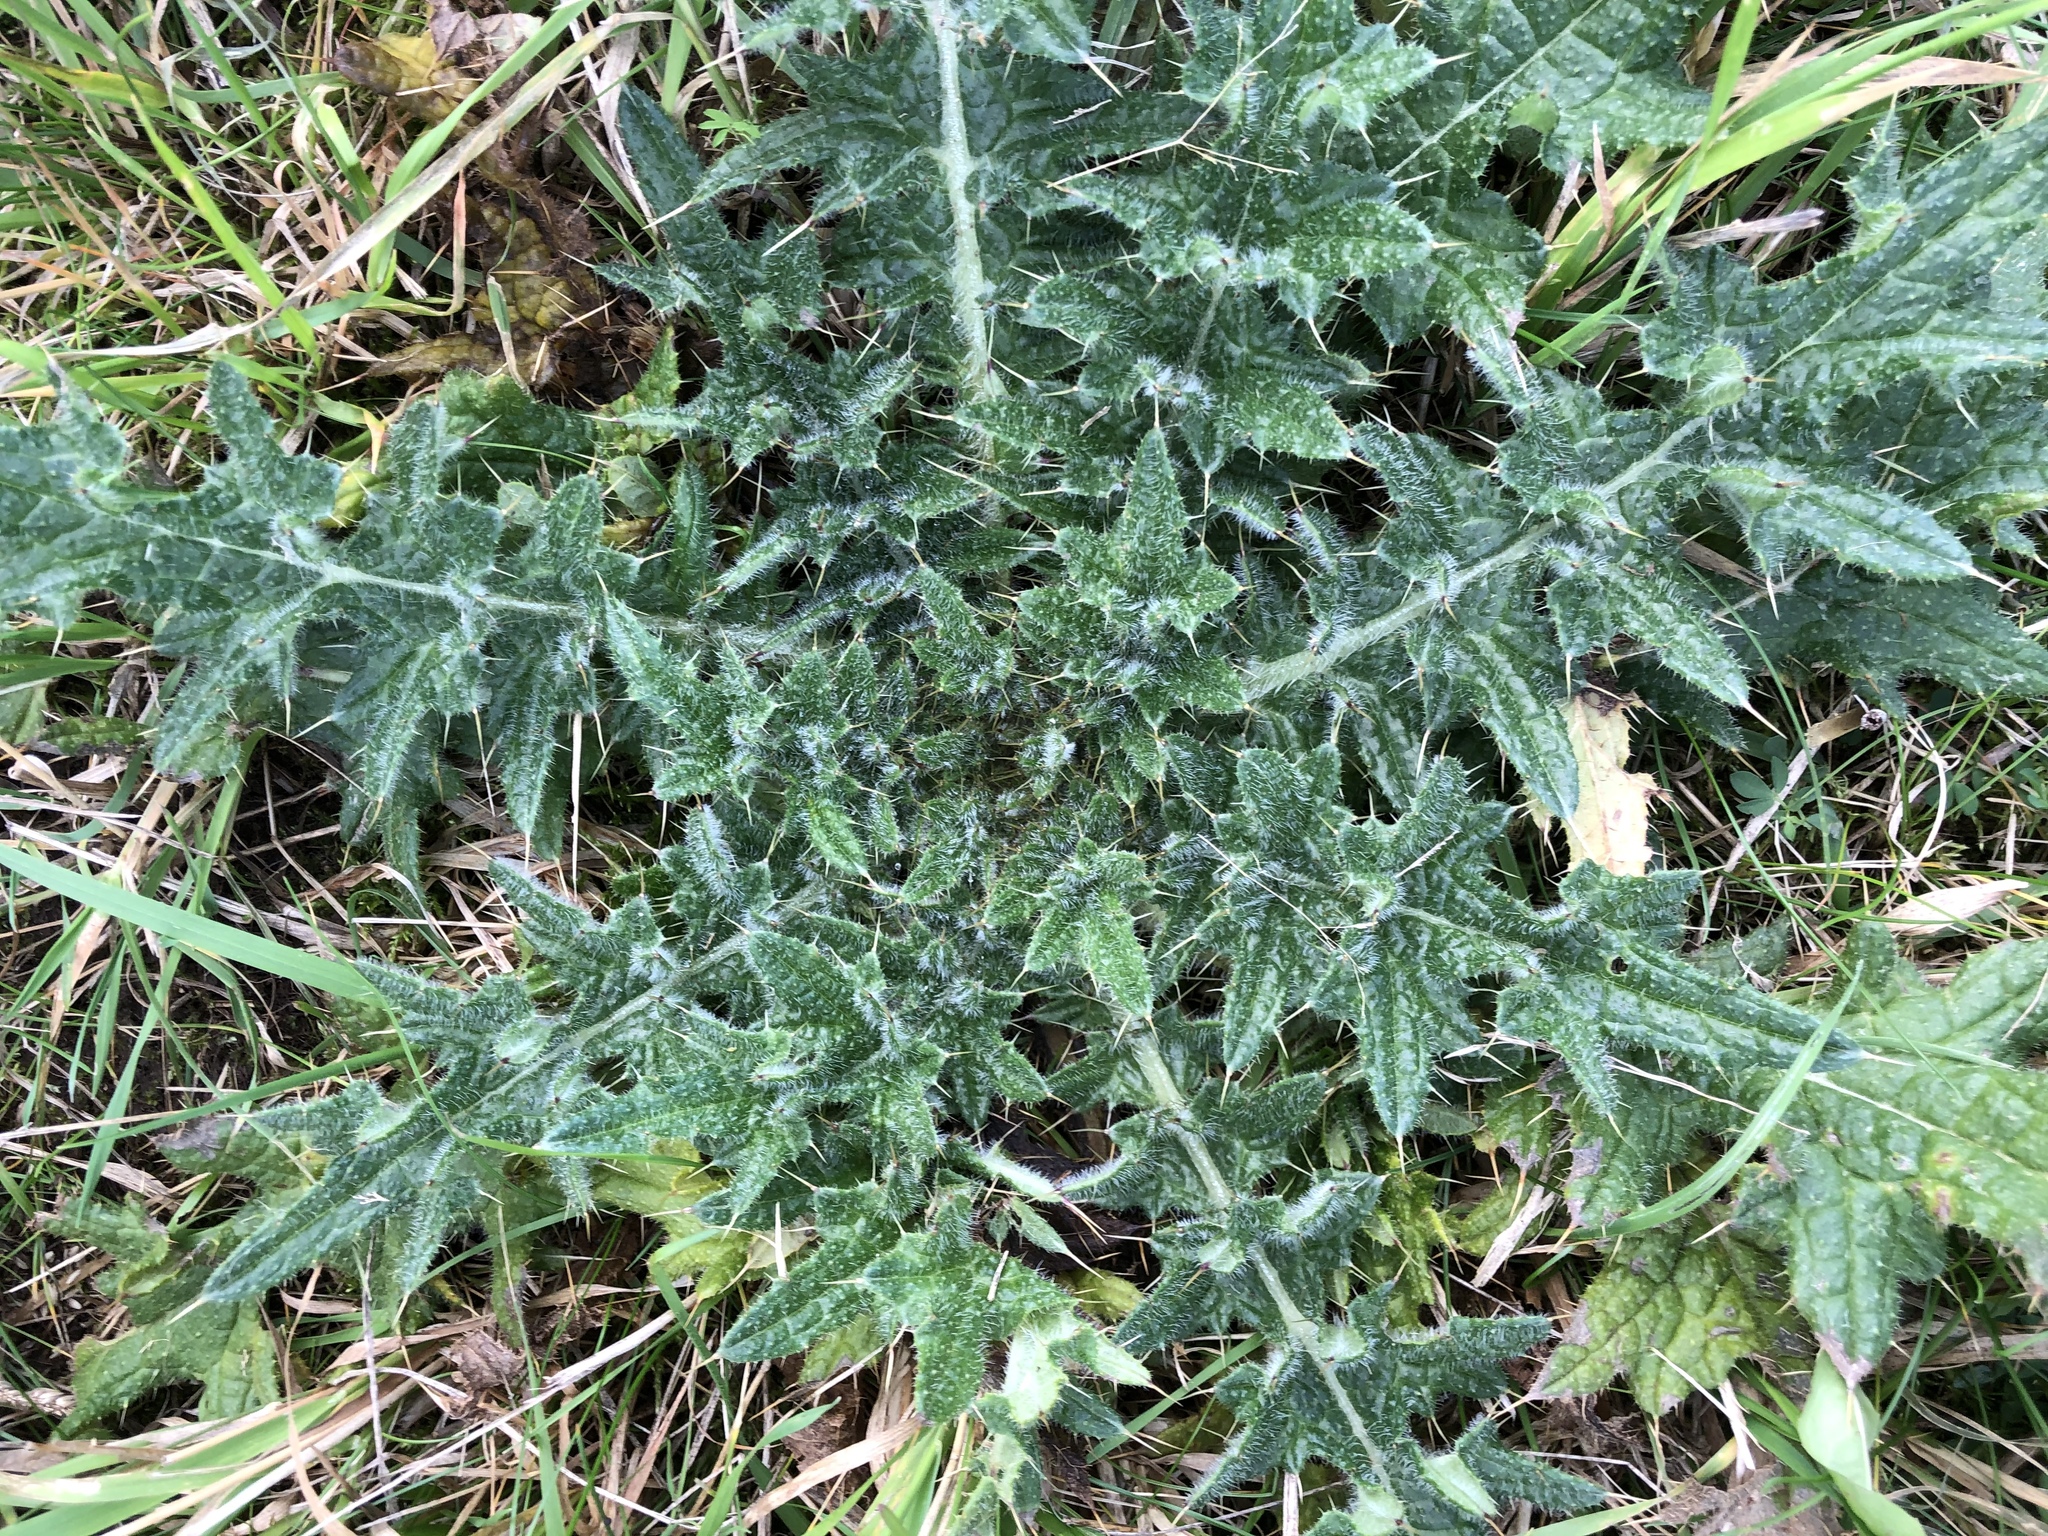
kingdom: Plantae
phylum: Tracheophyta
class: Magnoliopsida
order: Asterales
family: Asteraceae
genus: Cirsium
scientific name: Cirsium vulgare
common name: Bull thistle
